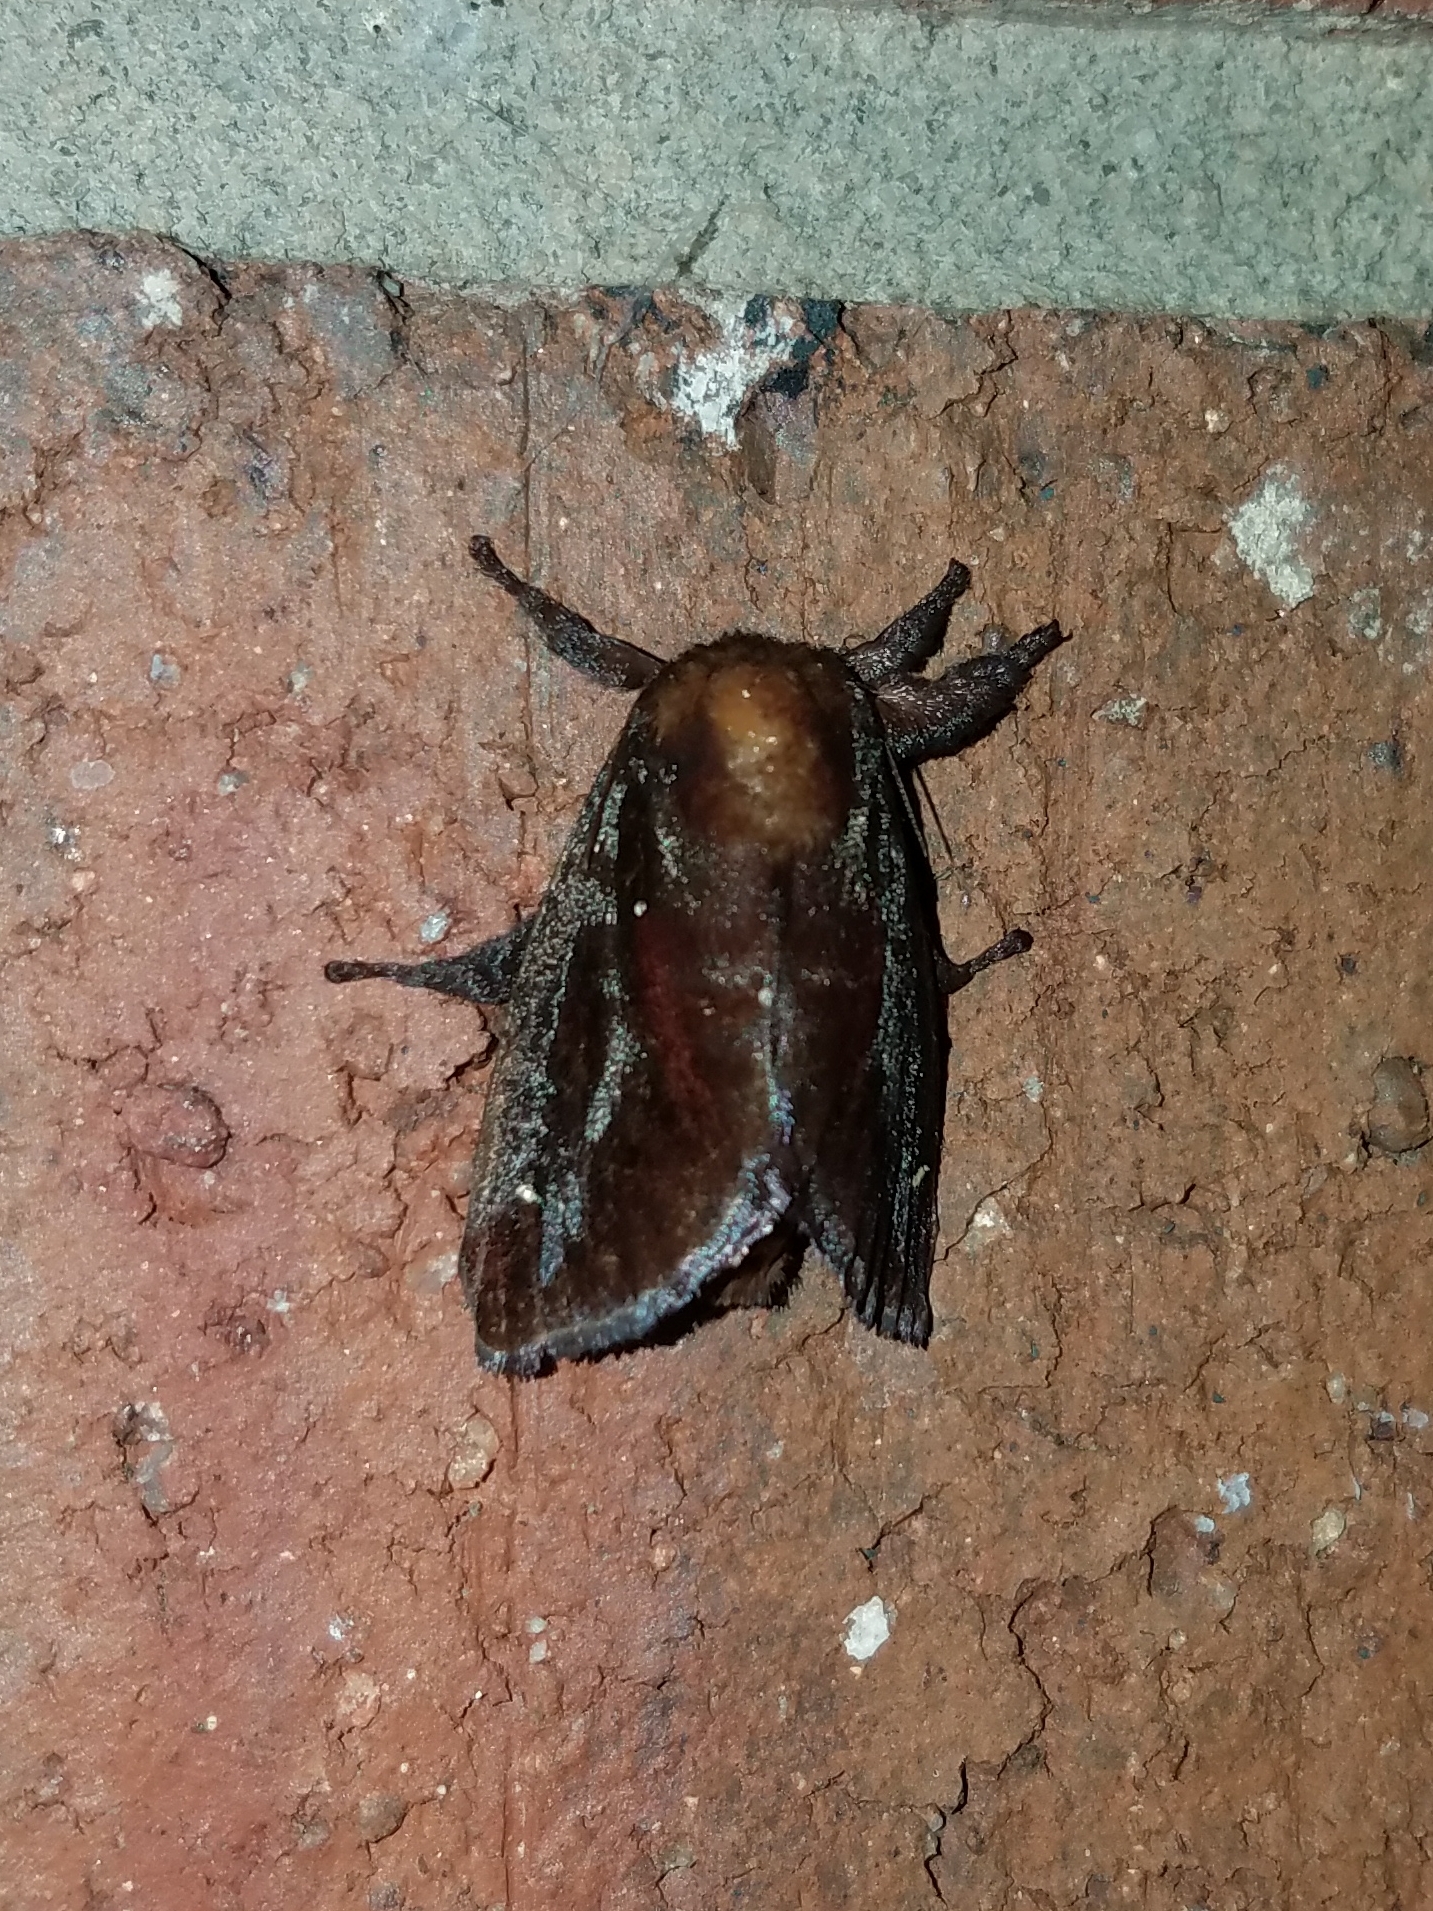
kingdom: Animalia
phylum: Arthropoda
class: Insecta
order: Lepidoptera
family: Limacodidae
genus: Acharia
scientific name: Acharia stimulea
